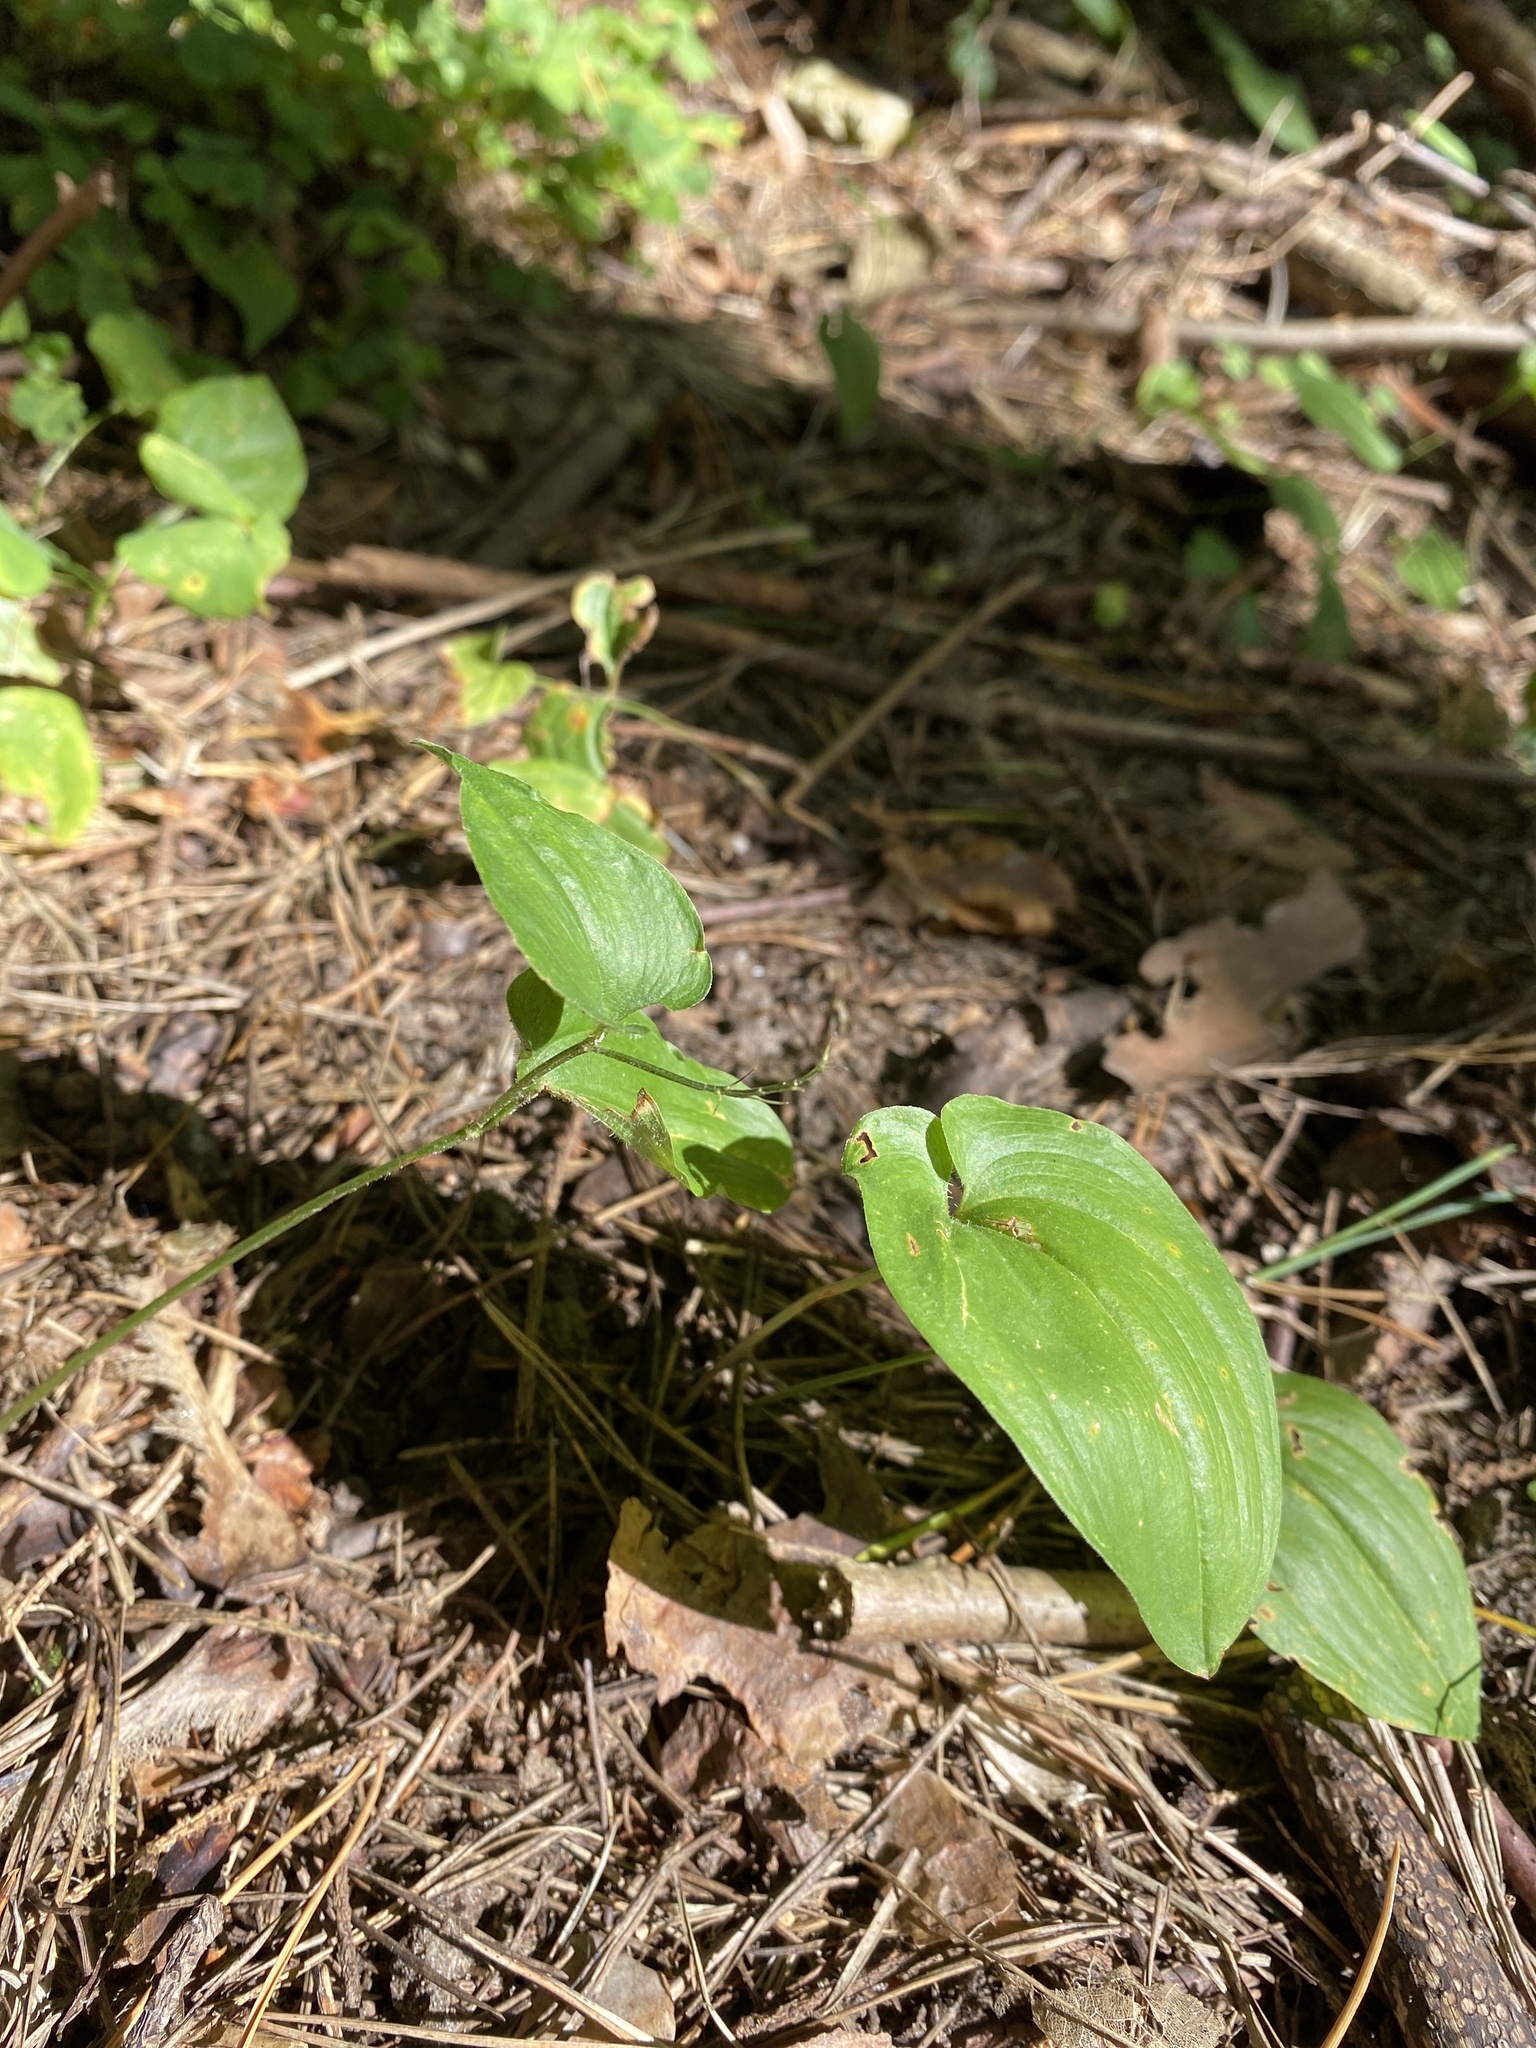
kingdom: Plantae
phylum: Tracheophyta
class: Liliopsida
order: Asparagales
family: Asparagaceae
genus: Maianthemum
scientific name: Maianthemum bifolium
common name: May lily
